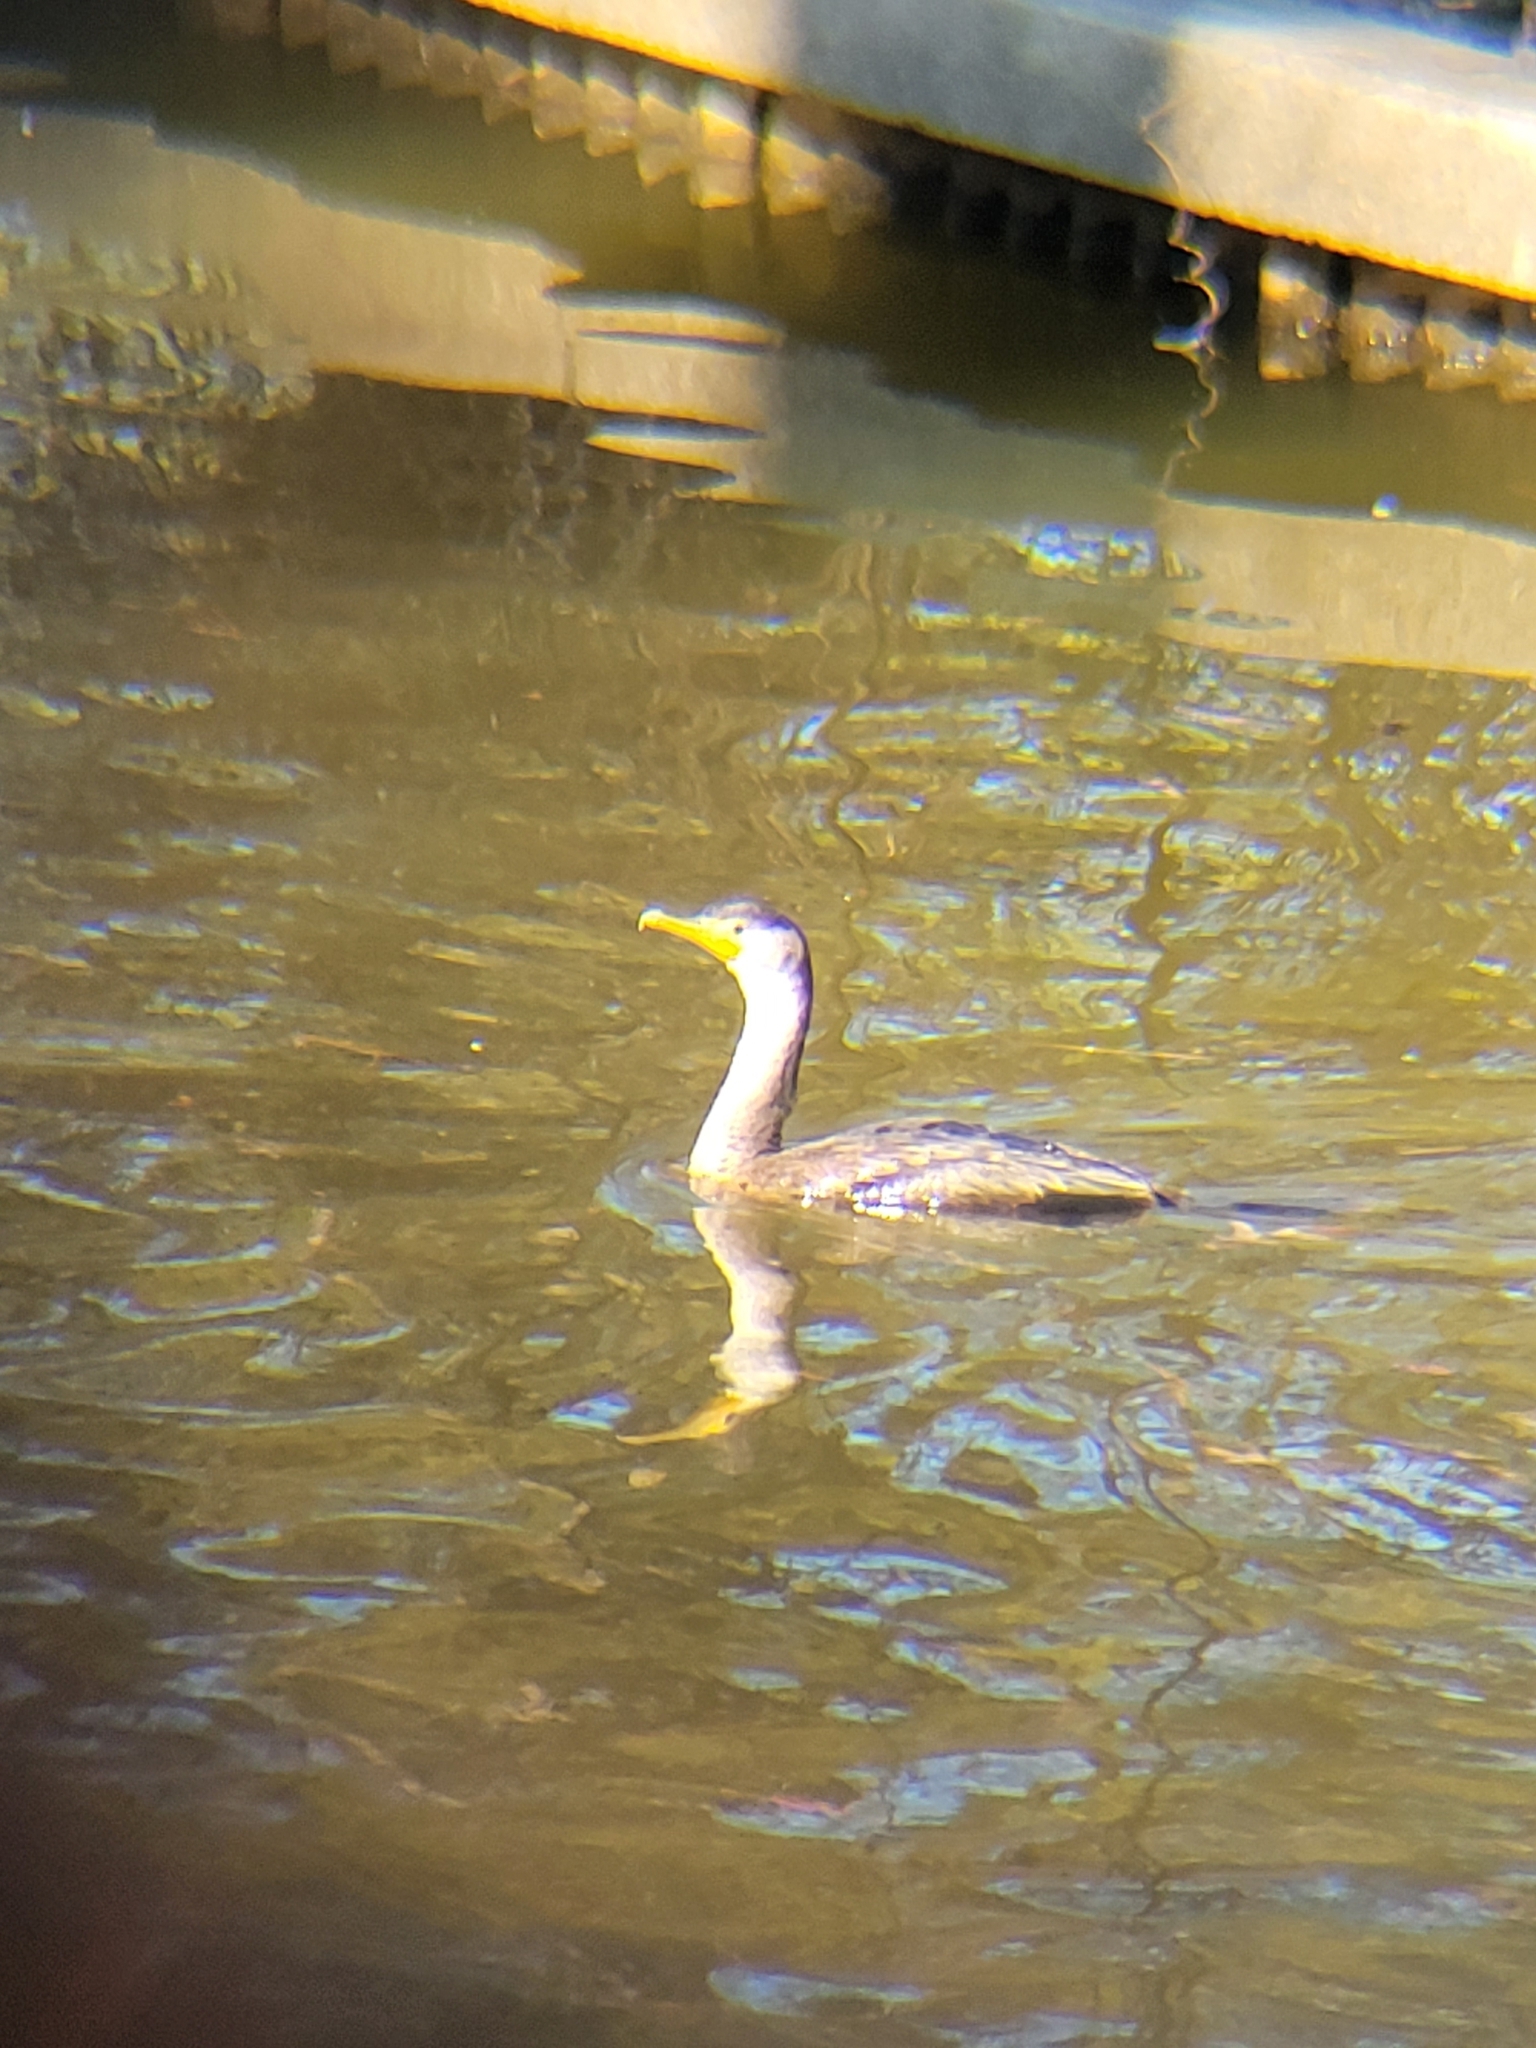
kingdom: Animalia
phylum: Chordata
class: Aves
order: Suliformes
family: Phalacrocoracidae
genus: Phalacrocorax
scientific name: Phalacrocorax auritus
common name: Double-crested cormorant
